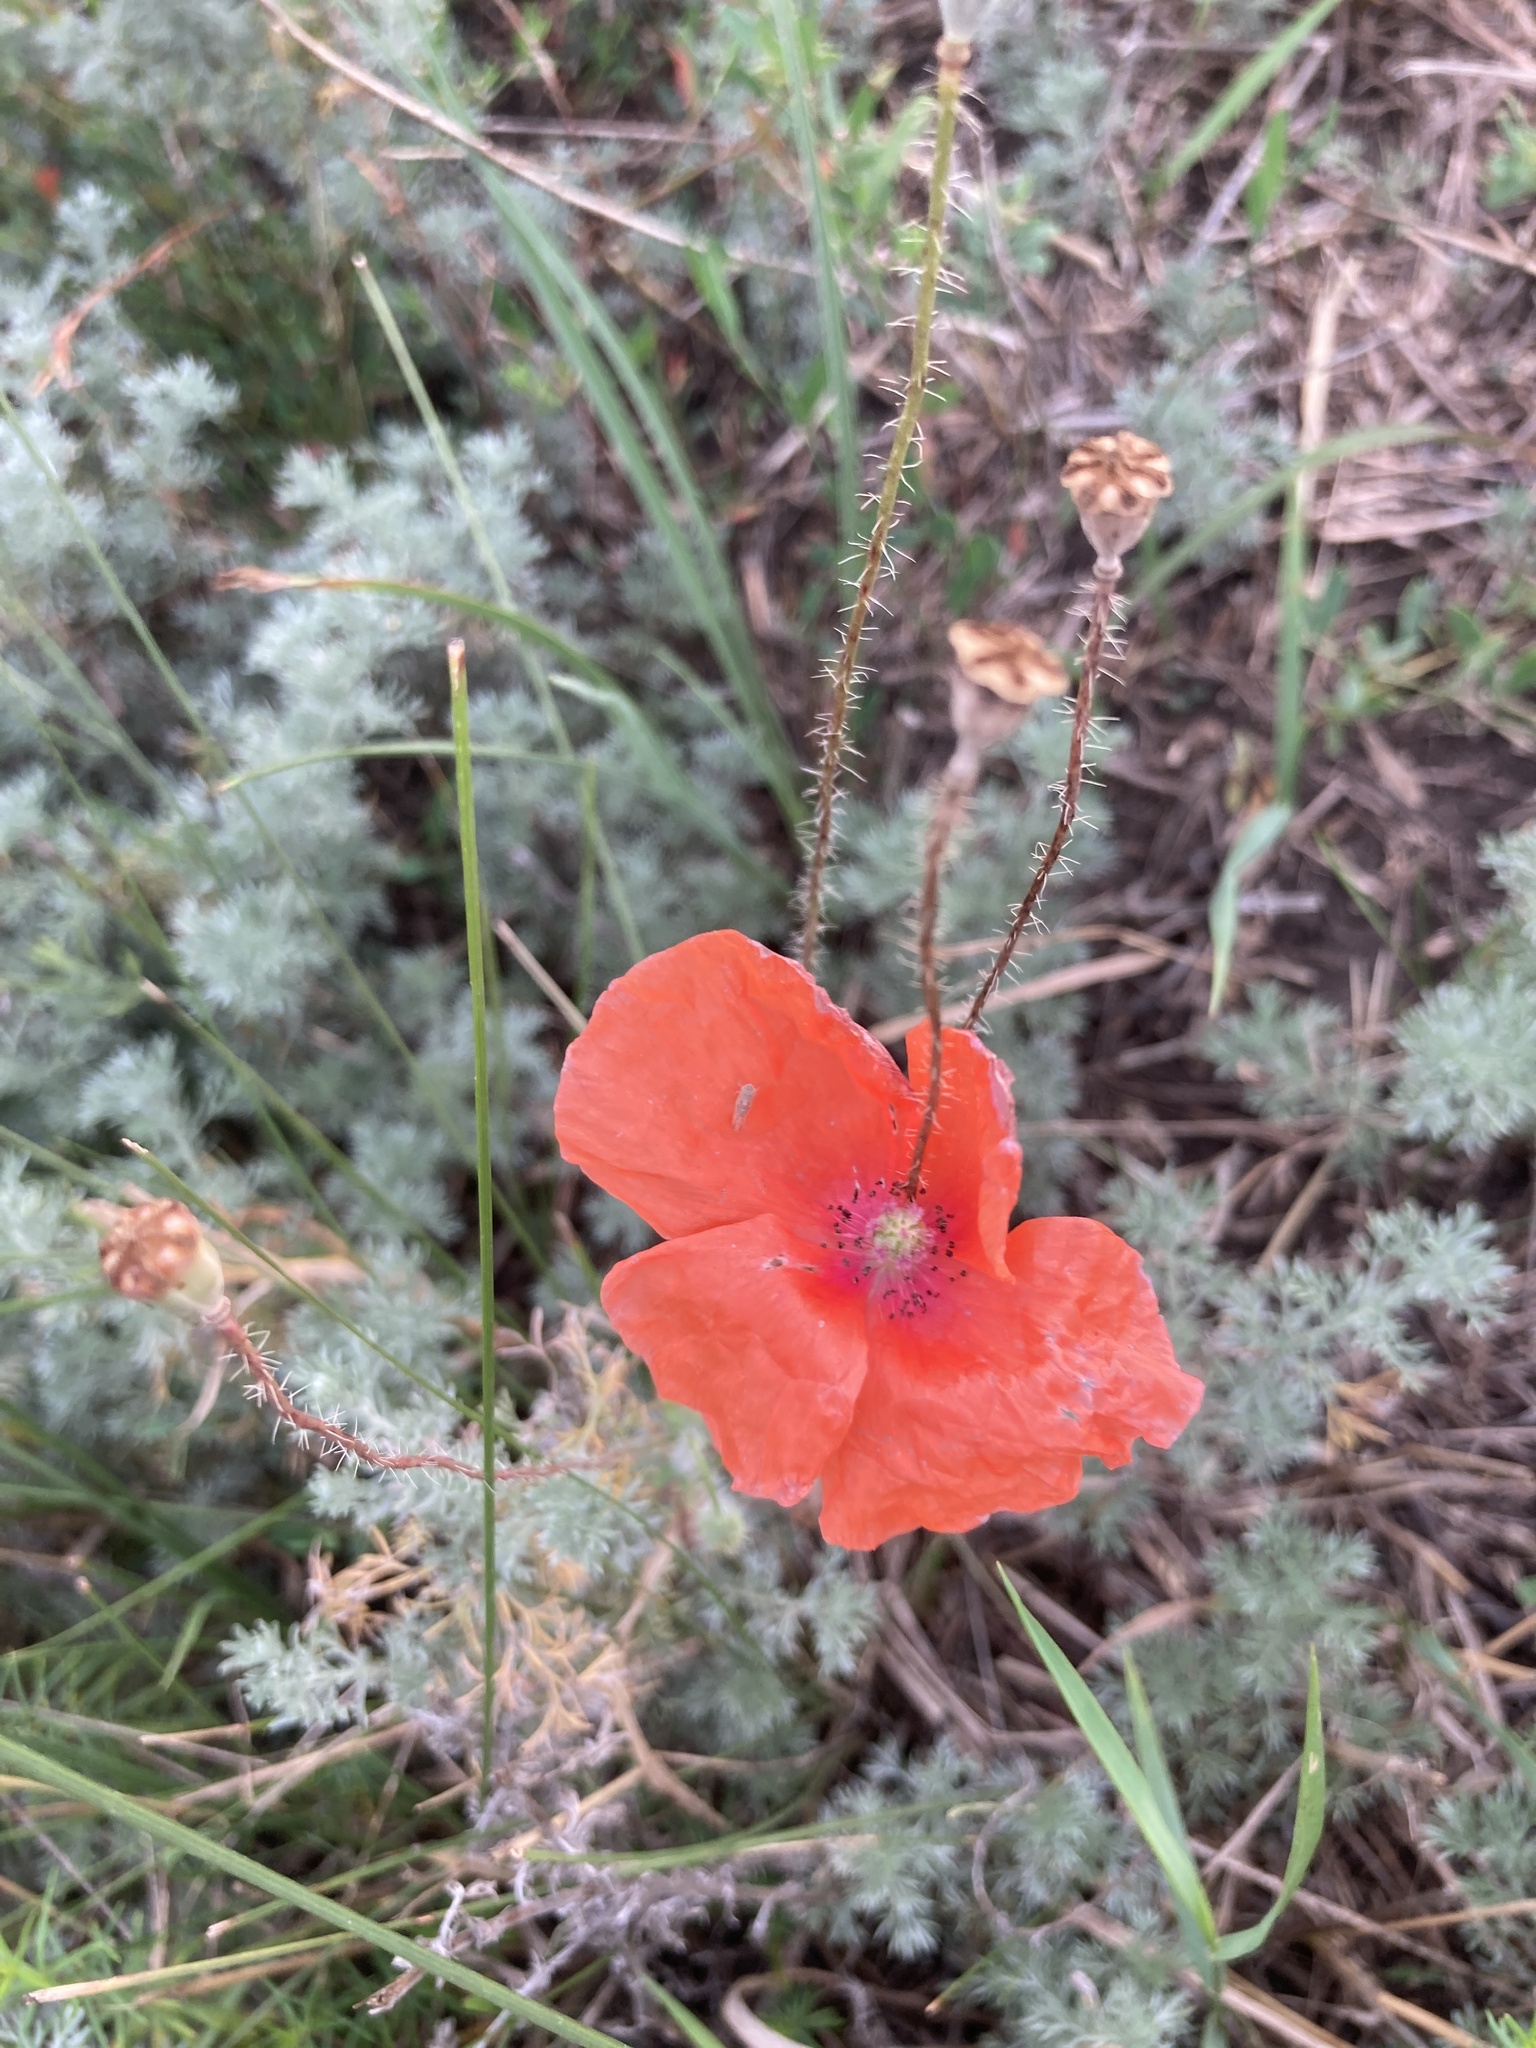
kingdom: Plantae
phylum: Tracheophyta
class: Magnoliopsida
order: Ranunculales
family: Papaveraceae
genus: Papaver
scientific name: Papaver rhoeas
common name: Corn poppy
